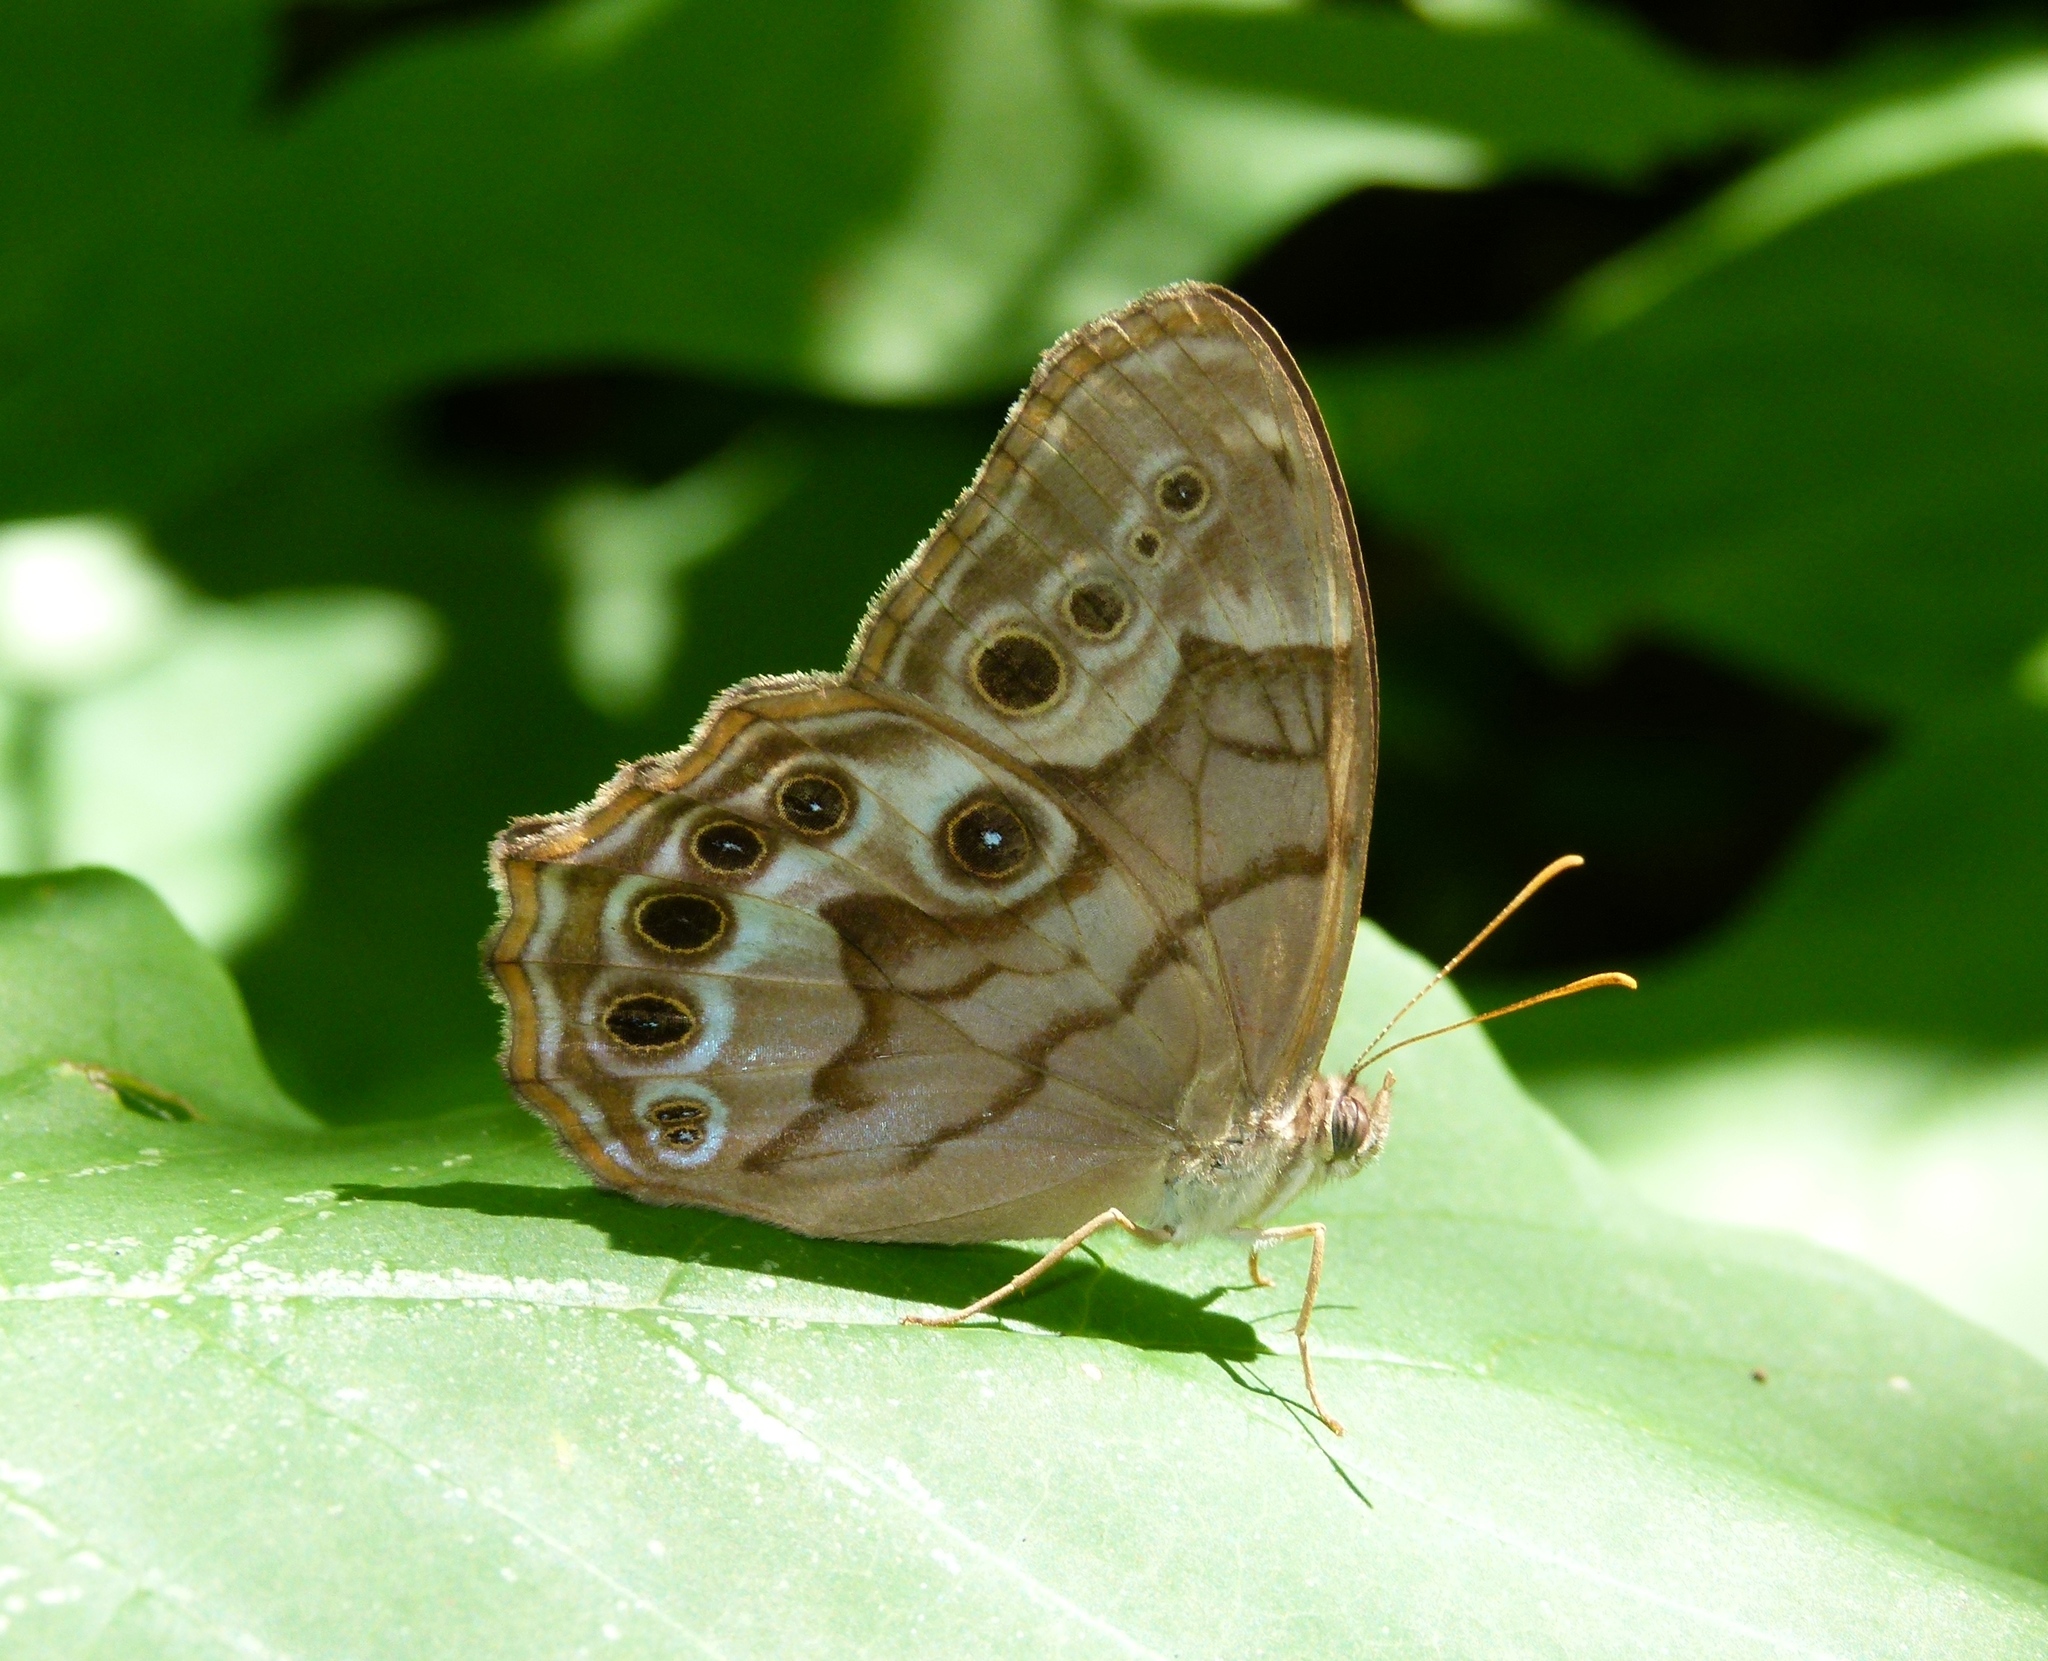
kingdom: Animalia
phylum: Arthropoda
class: Insecta
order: Lepidoptera
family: Nymphalidae
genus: Enodia
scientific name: Enodia portlandia
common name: Southern pearly-eye
